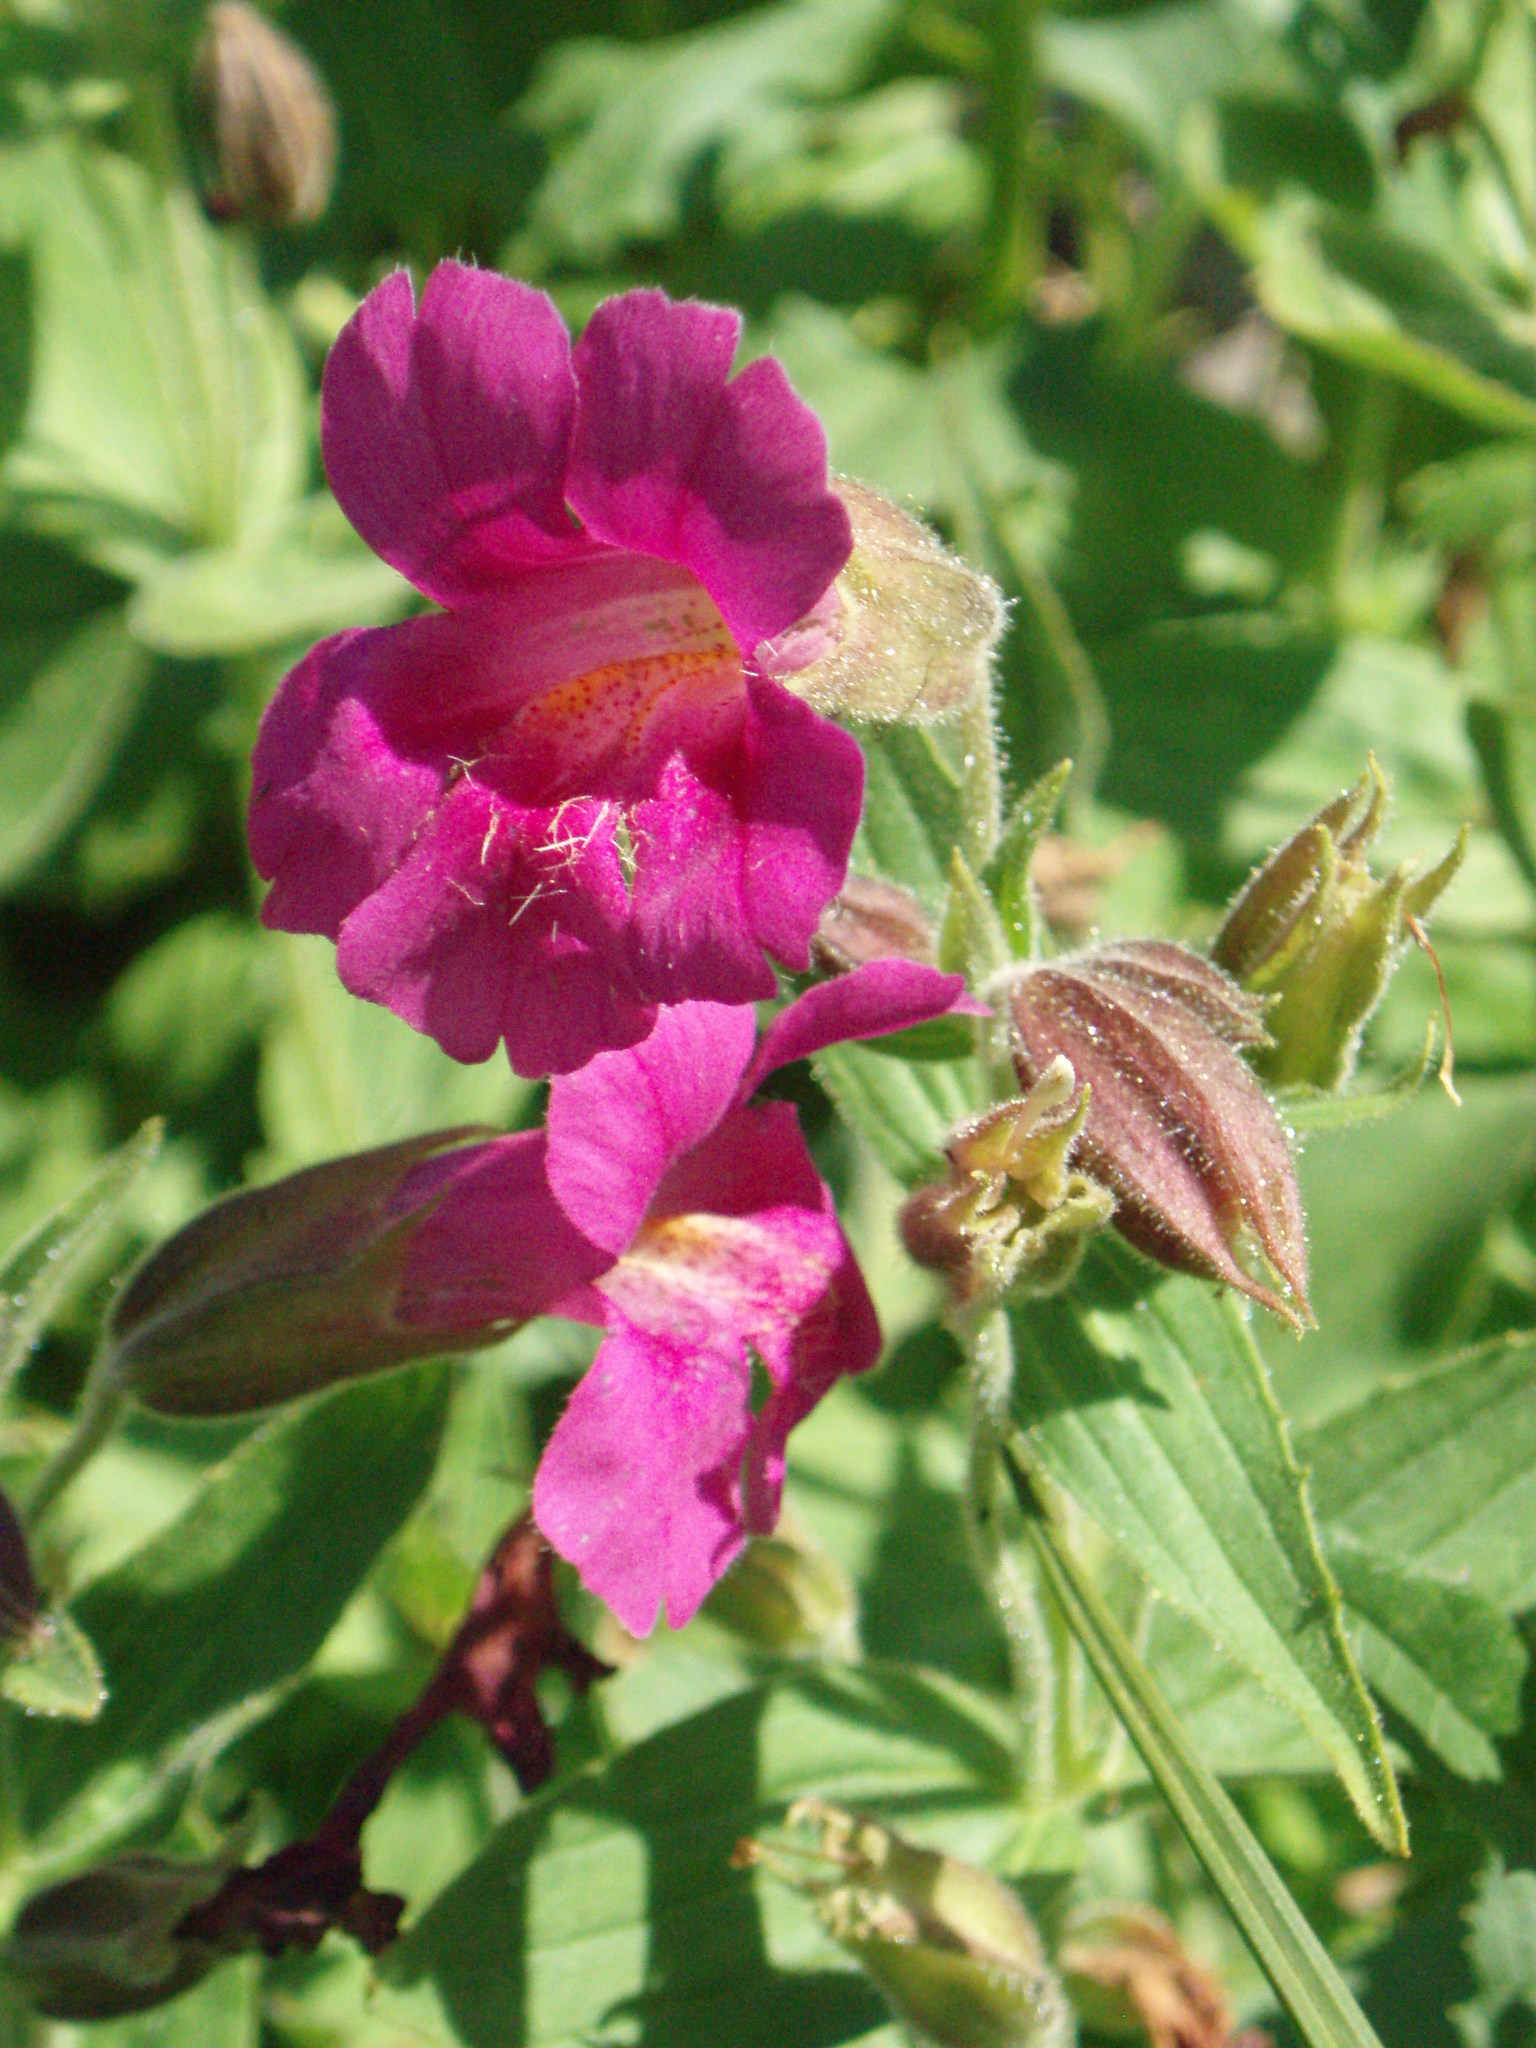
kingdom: Plantae
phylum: Tracheophyta
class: Magnoliopsida
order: Lamiales
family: Phrymaceae
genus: Erythranthe
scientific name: Erythranthe lewisii
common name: Lewis's monkey-flower
